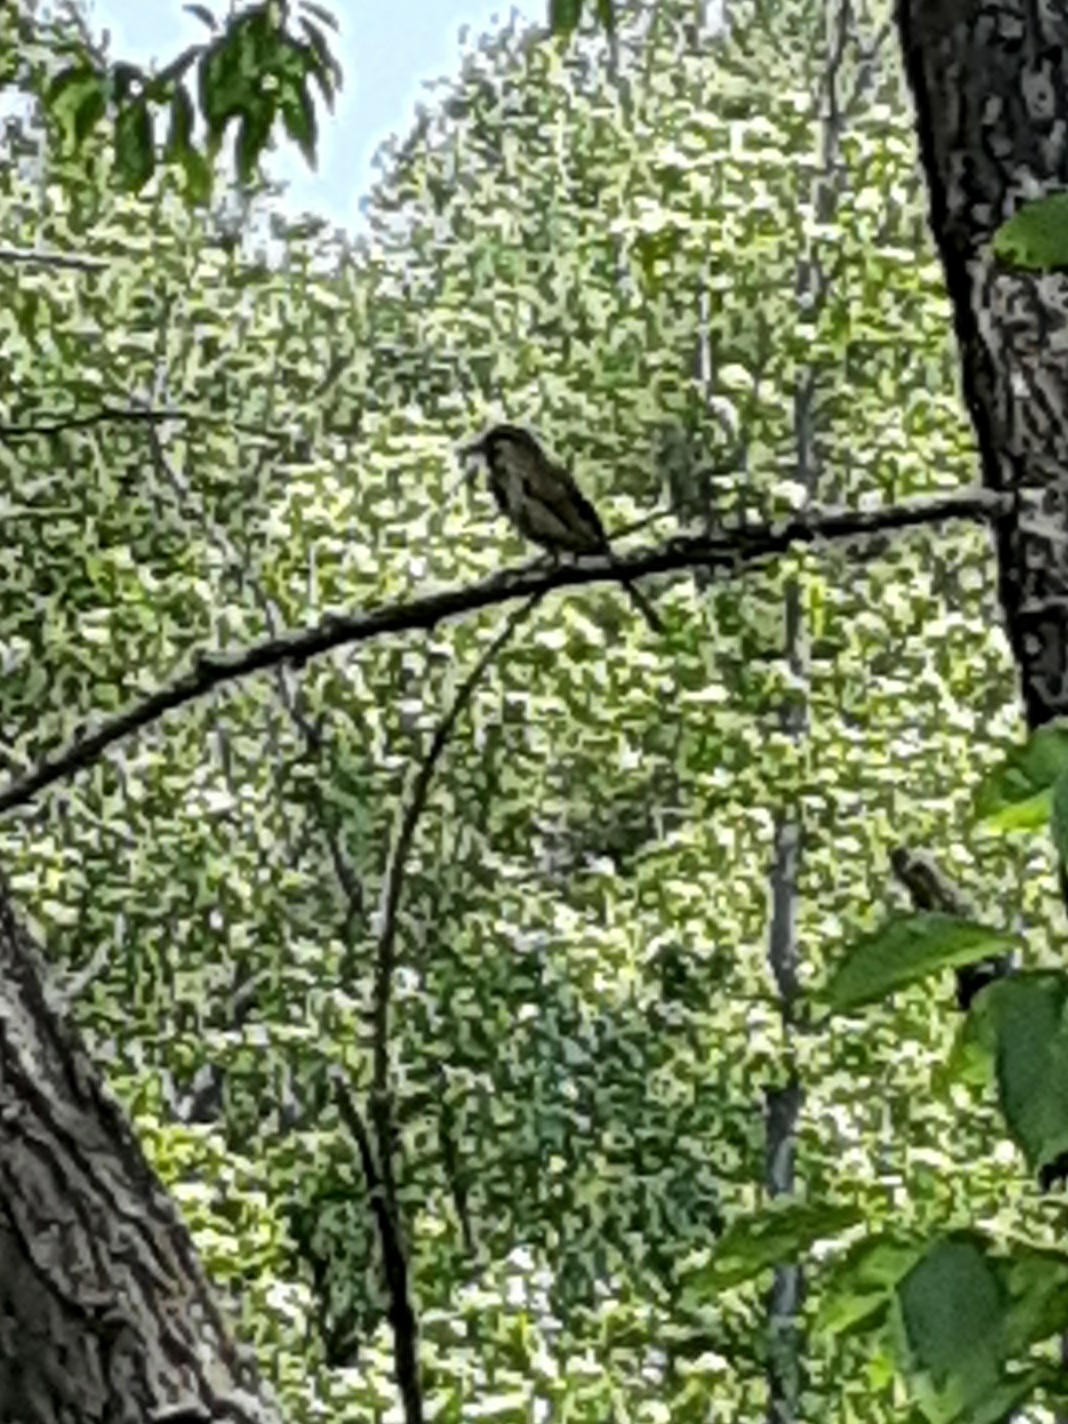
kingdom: Animalia
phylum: Chordata
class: Aves
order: Passeriformes
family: Passeridae
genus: Passer
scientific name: Passer domesticus
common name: House sparrow
